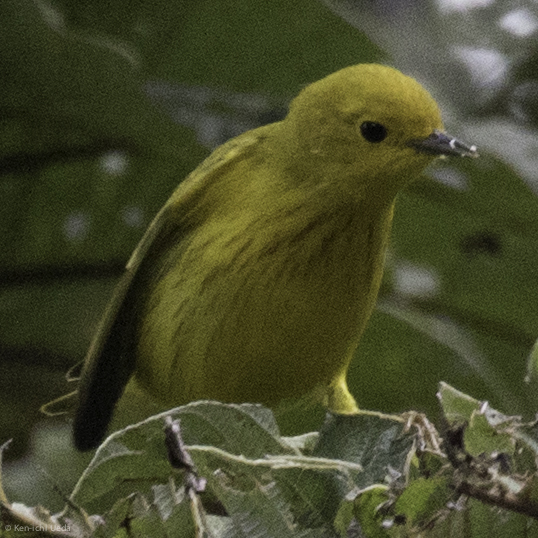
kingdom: Animalia
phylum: Chordata
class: Aves
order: Passeriformes
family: Parulidae
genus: Setophaga
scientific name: Setophaga petechia
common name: Yellow warbler
